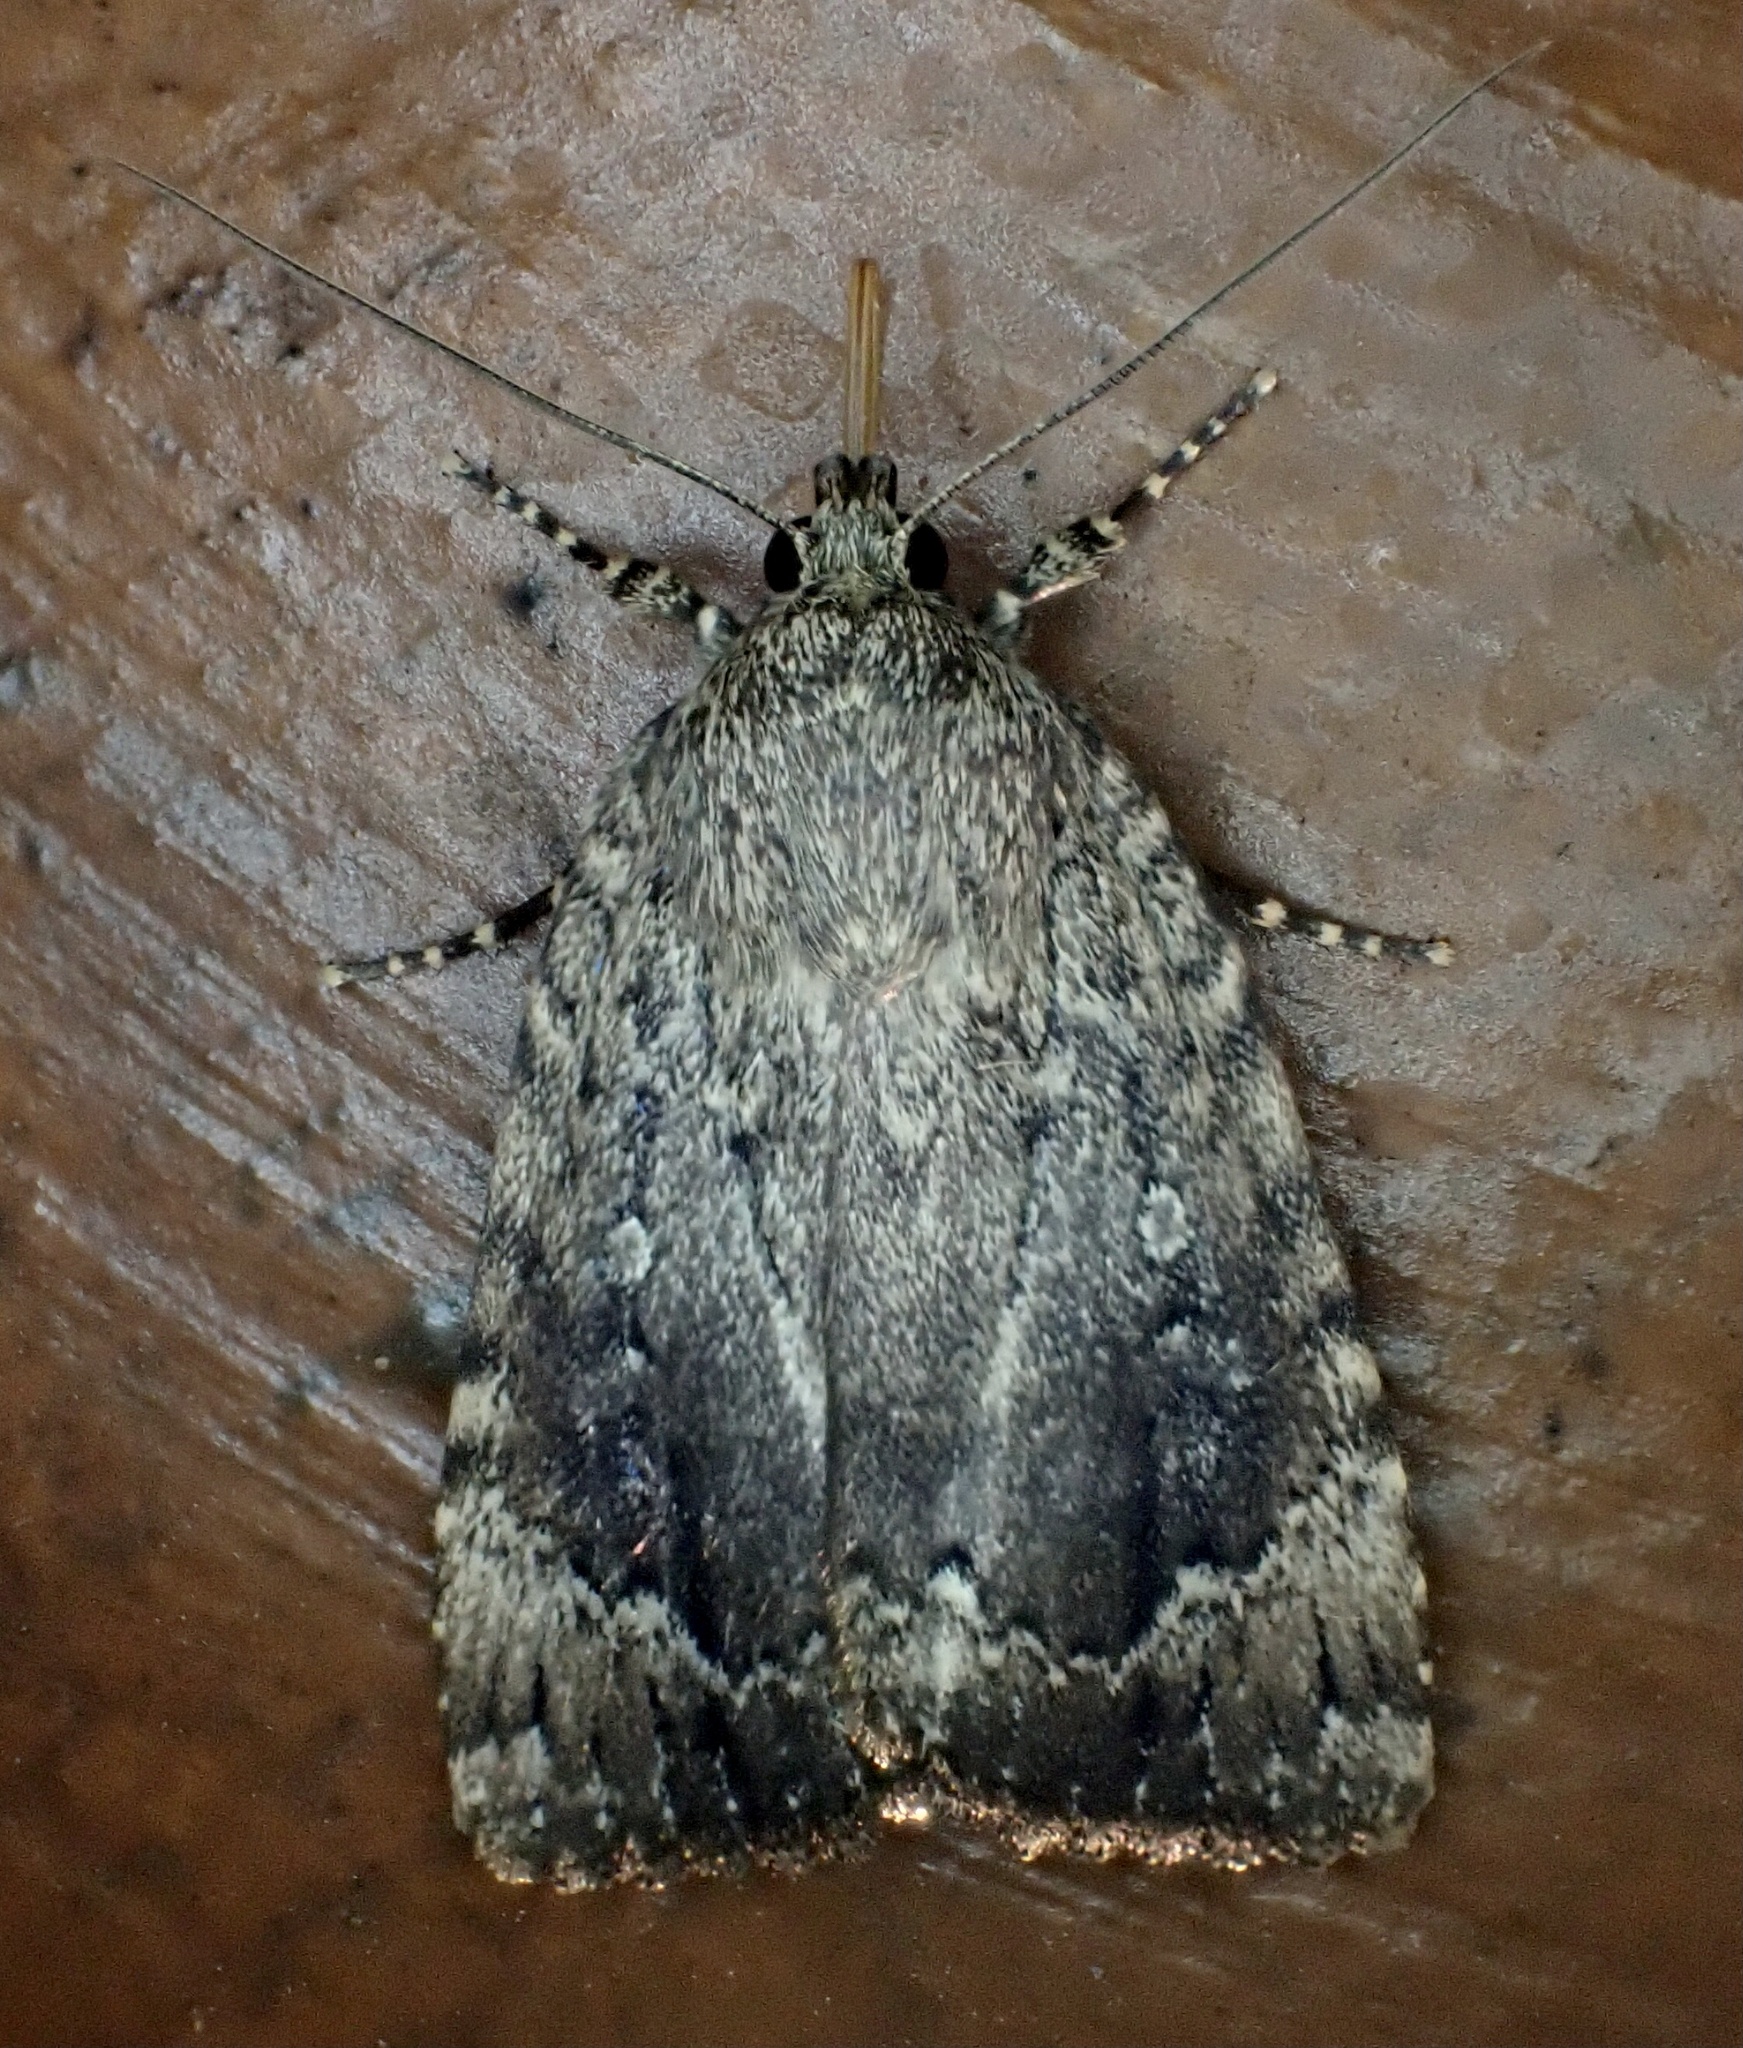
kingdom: Animalia
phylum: Arthropoda
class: Insecta
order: Lepidoptera
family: Noctuidae
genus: Amphipyra
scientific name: Amphipyra pyramidoides
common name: American copper underwing
